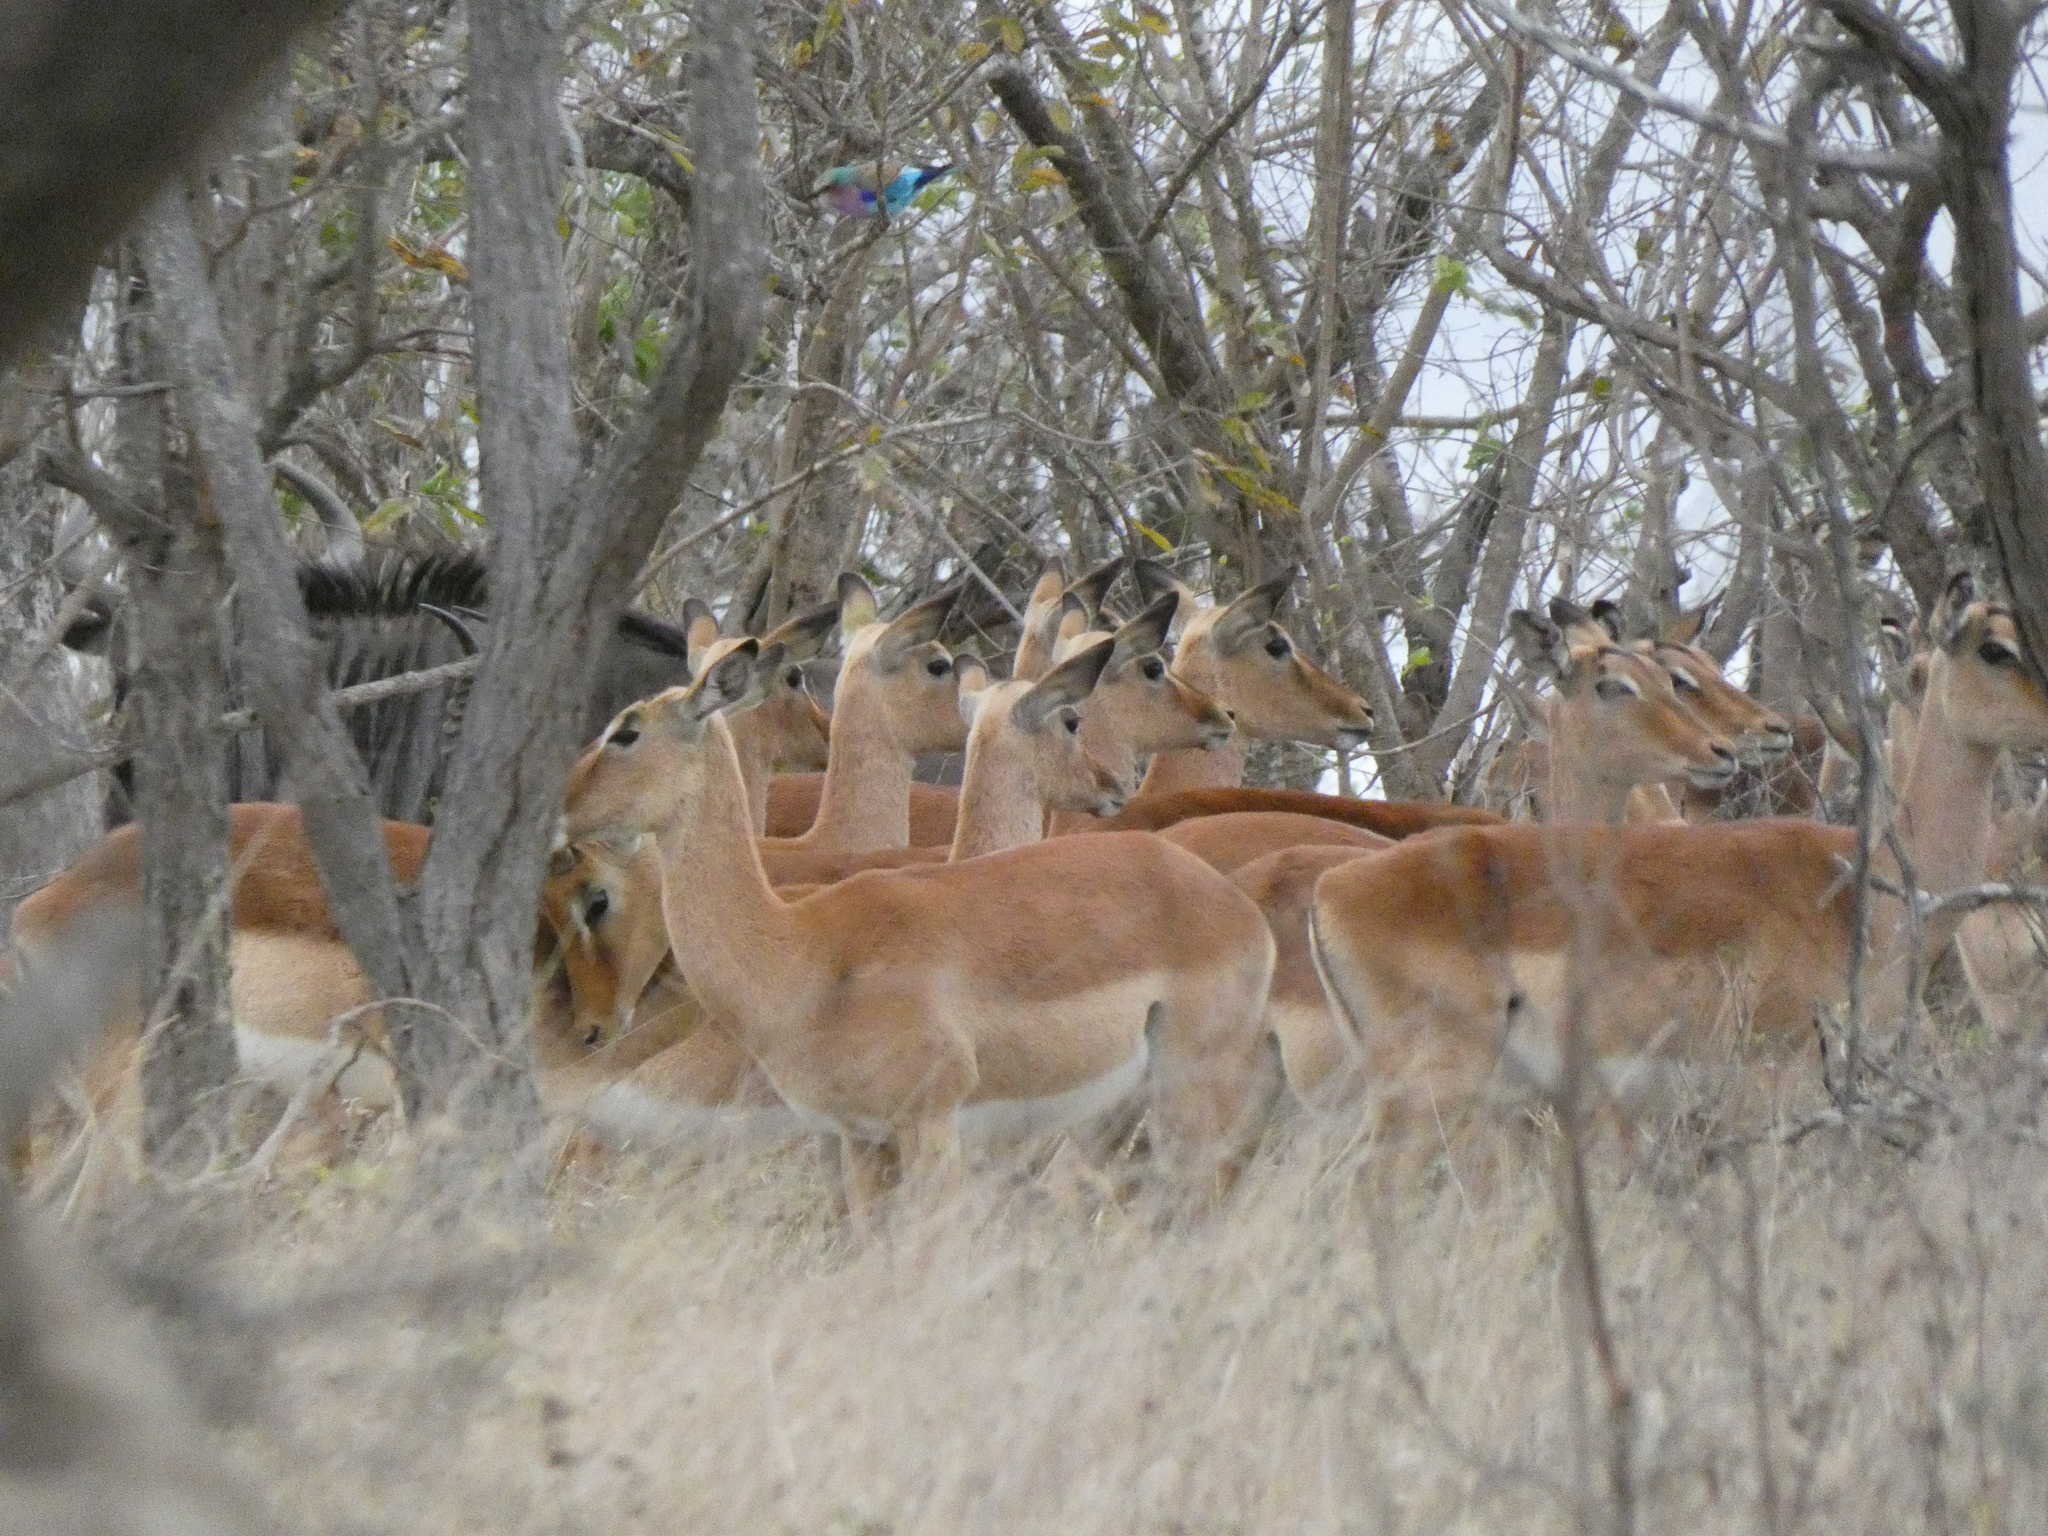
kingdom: Animalia
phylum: Chordata
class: Mammalia
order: Artiodactyla
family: Bovidae
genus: Aepyceros
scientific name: Aepyceros melampus
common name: Impala
